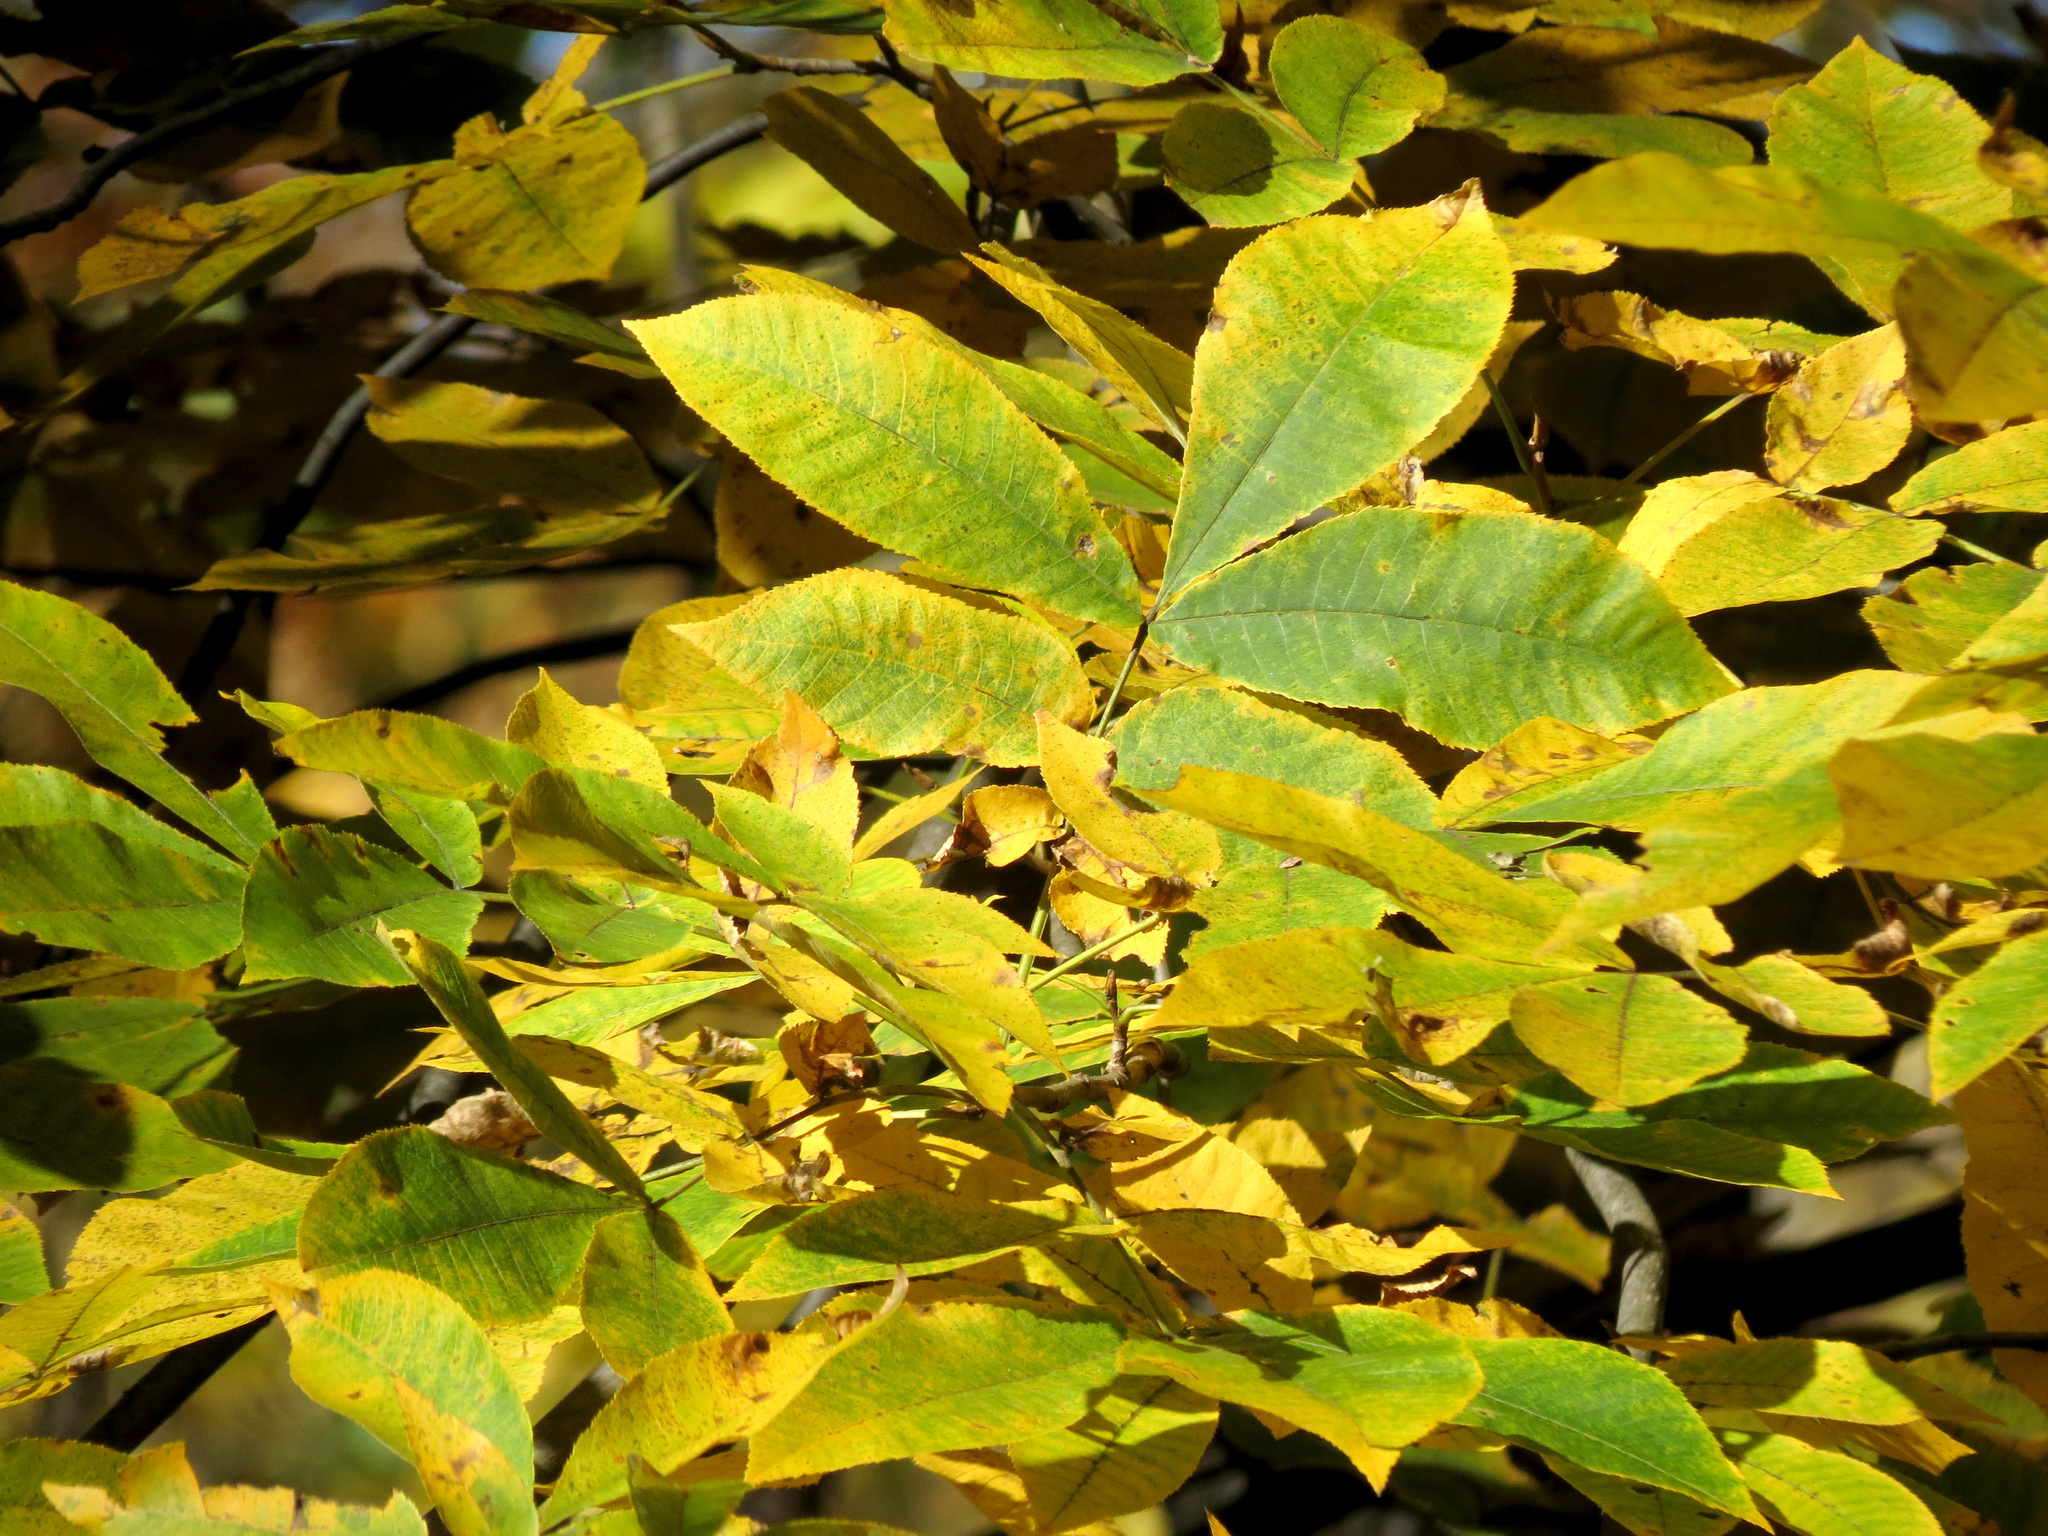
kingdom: Plantae
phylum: Tracheophyta
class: Magnoliopsida
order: Fagales
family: Juglandaceae
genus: Carya
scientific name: Carya cordiformis
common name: Bitternut hickory
